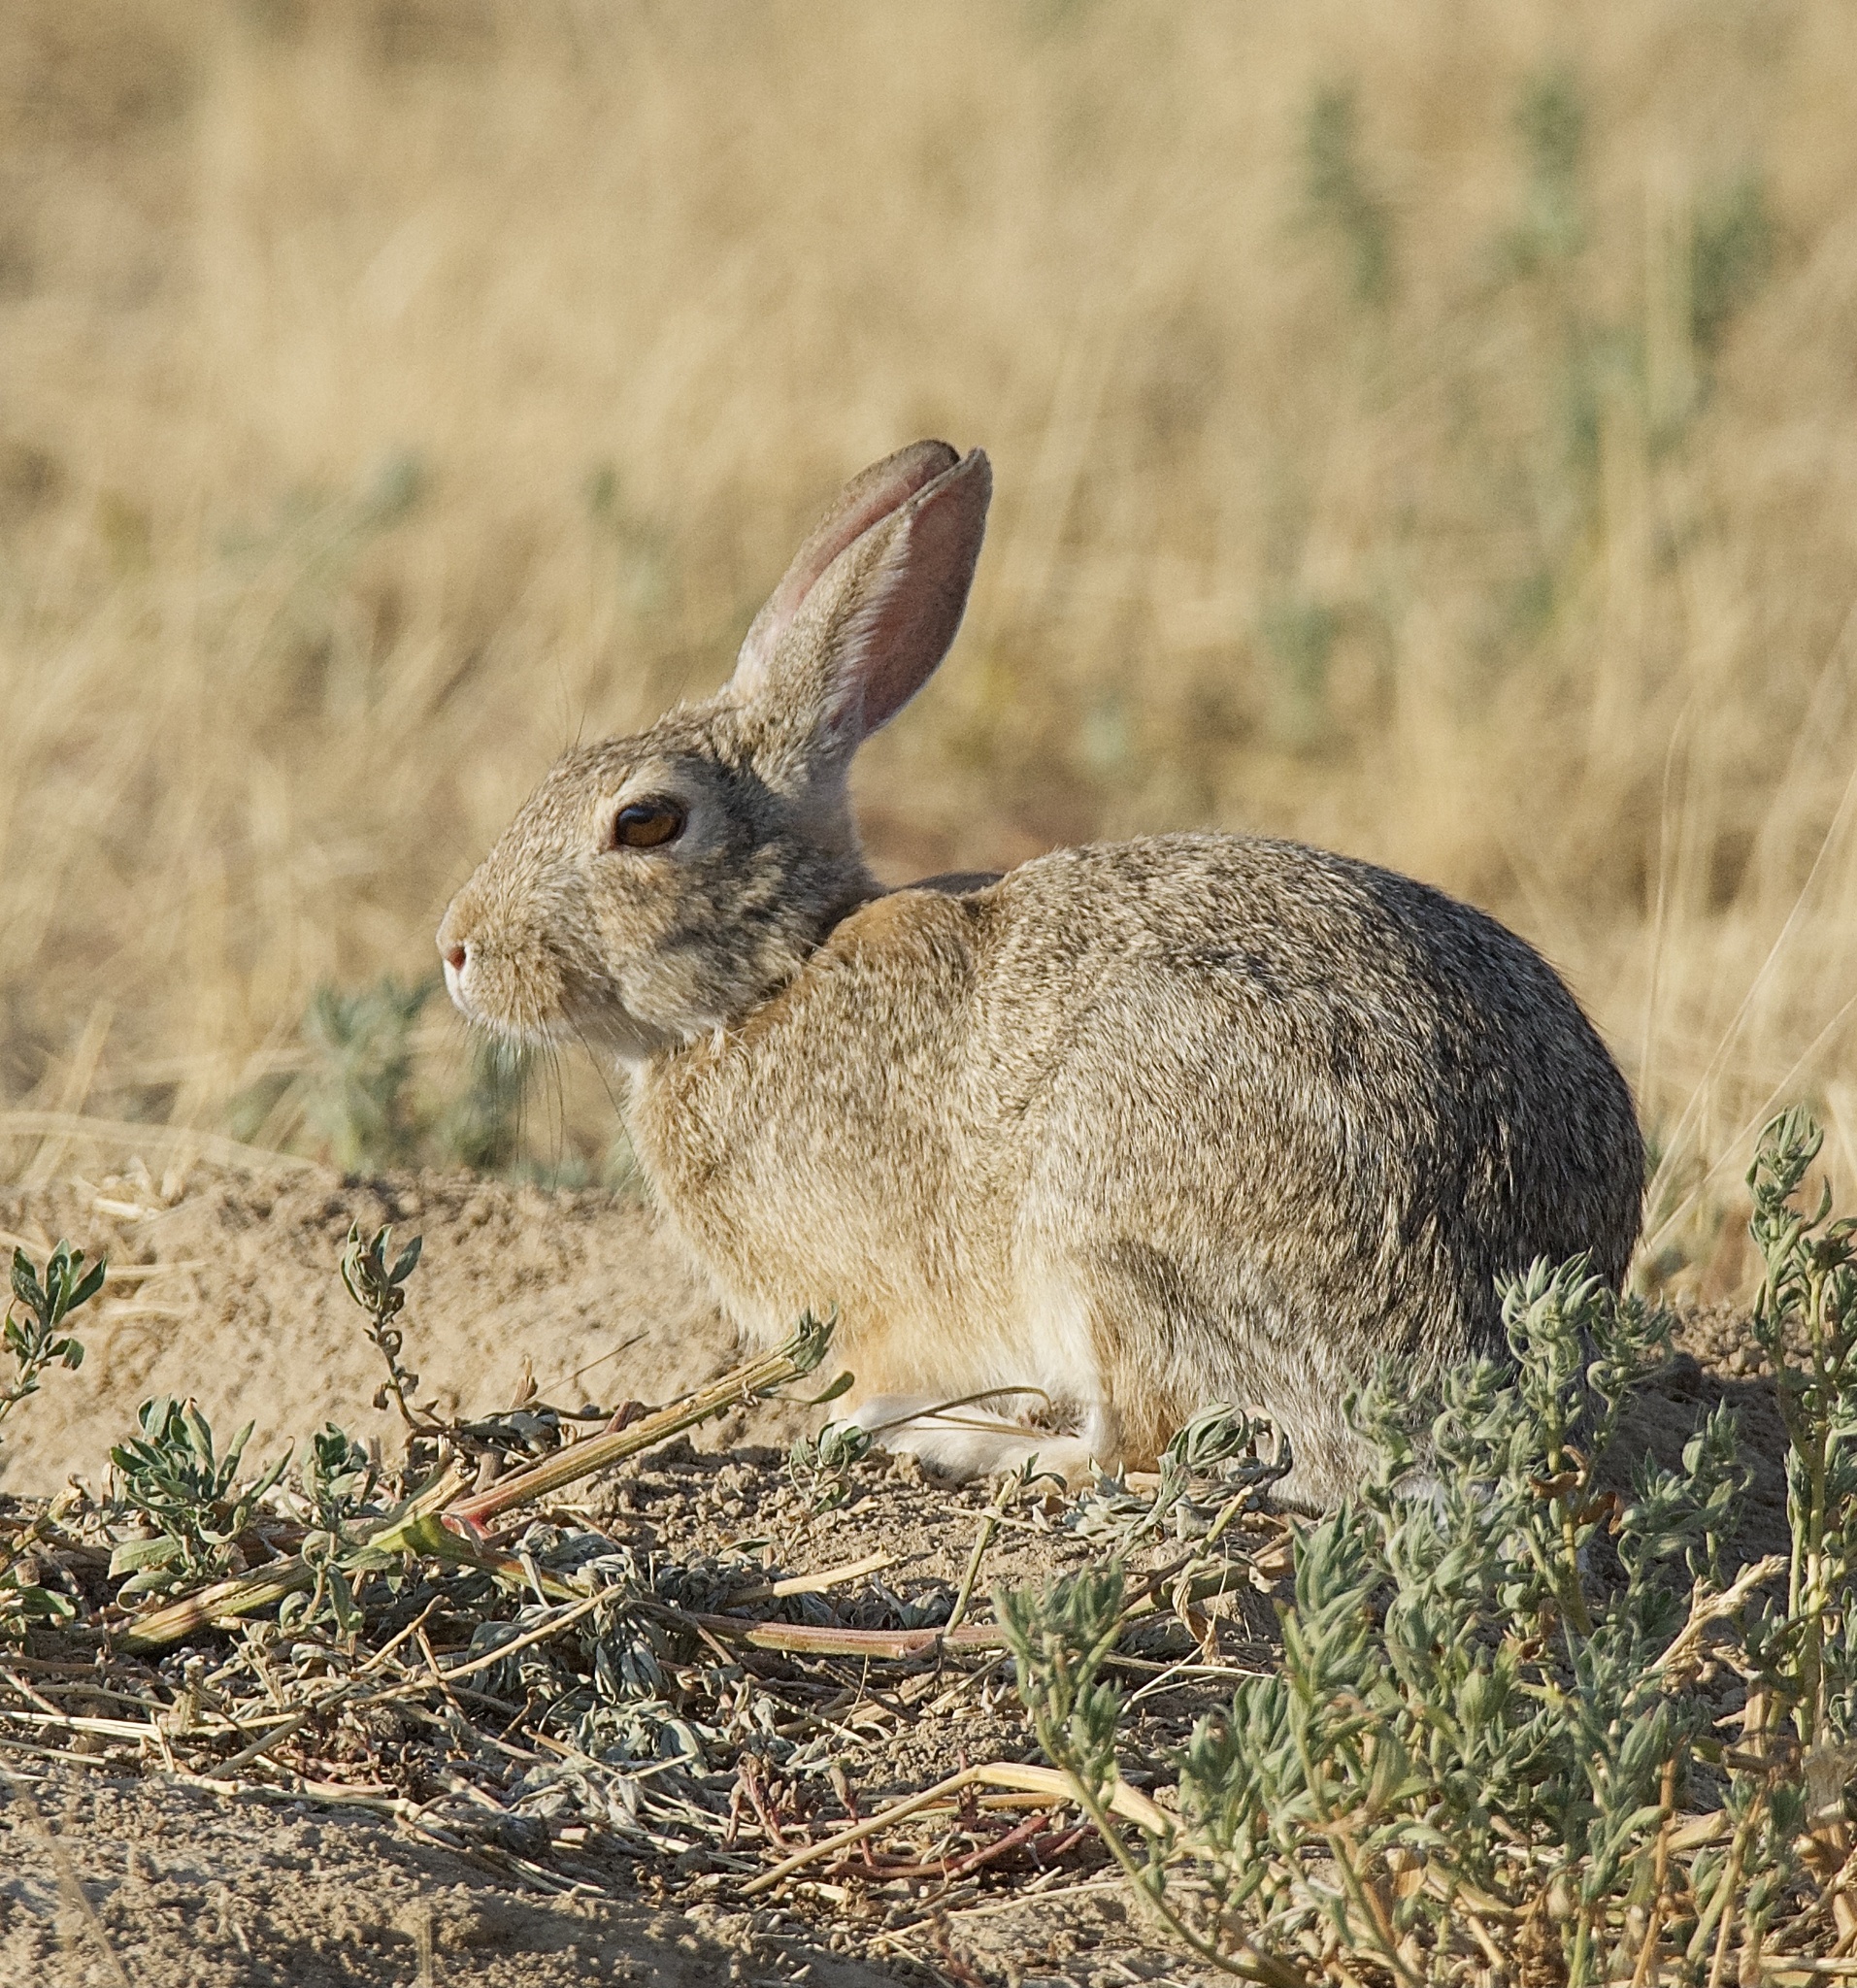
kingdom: Animalia
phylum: Chordata
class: Mammalia
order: Lagomorpha
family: Leporidae
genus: Sylvilagus
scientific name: Sylvilagus audubonii
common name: Desert cottontail
